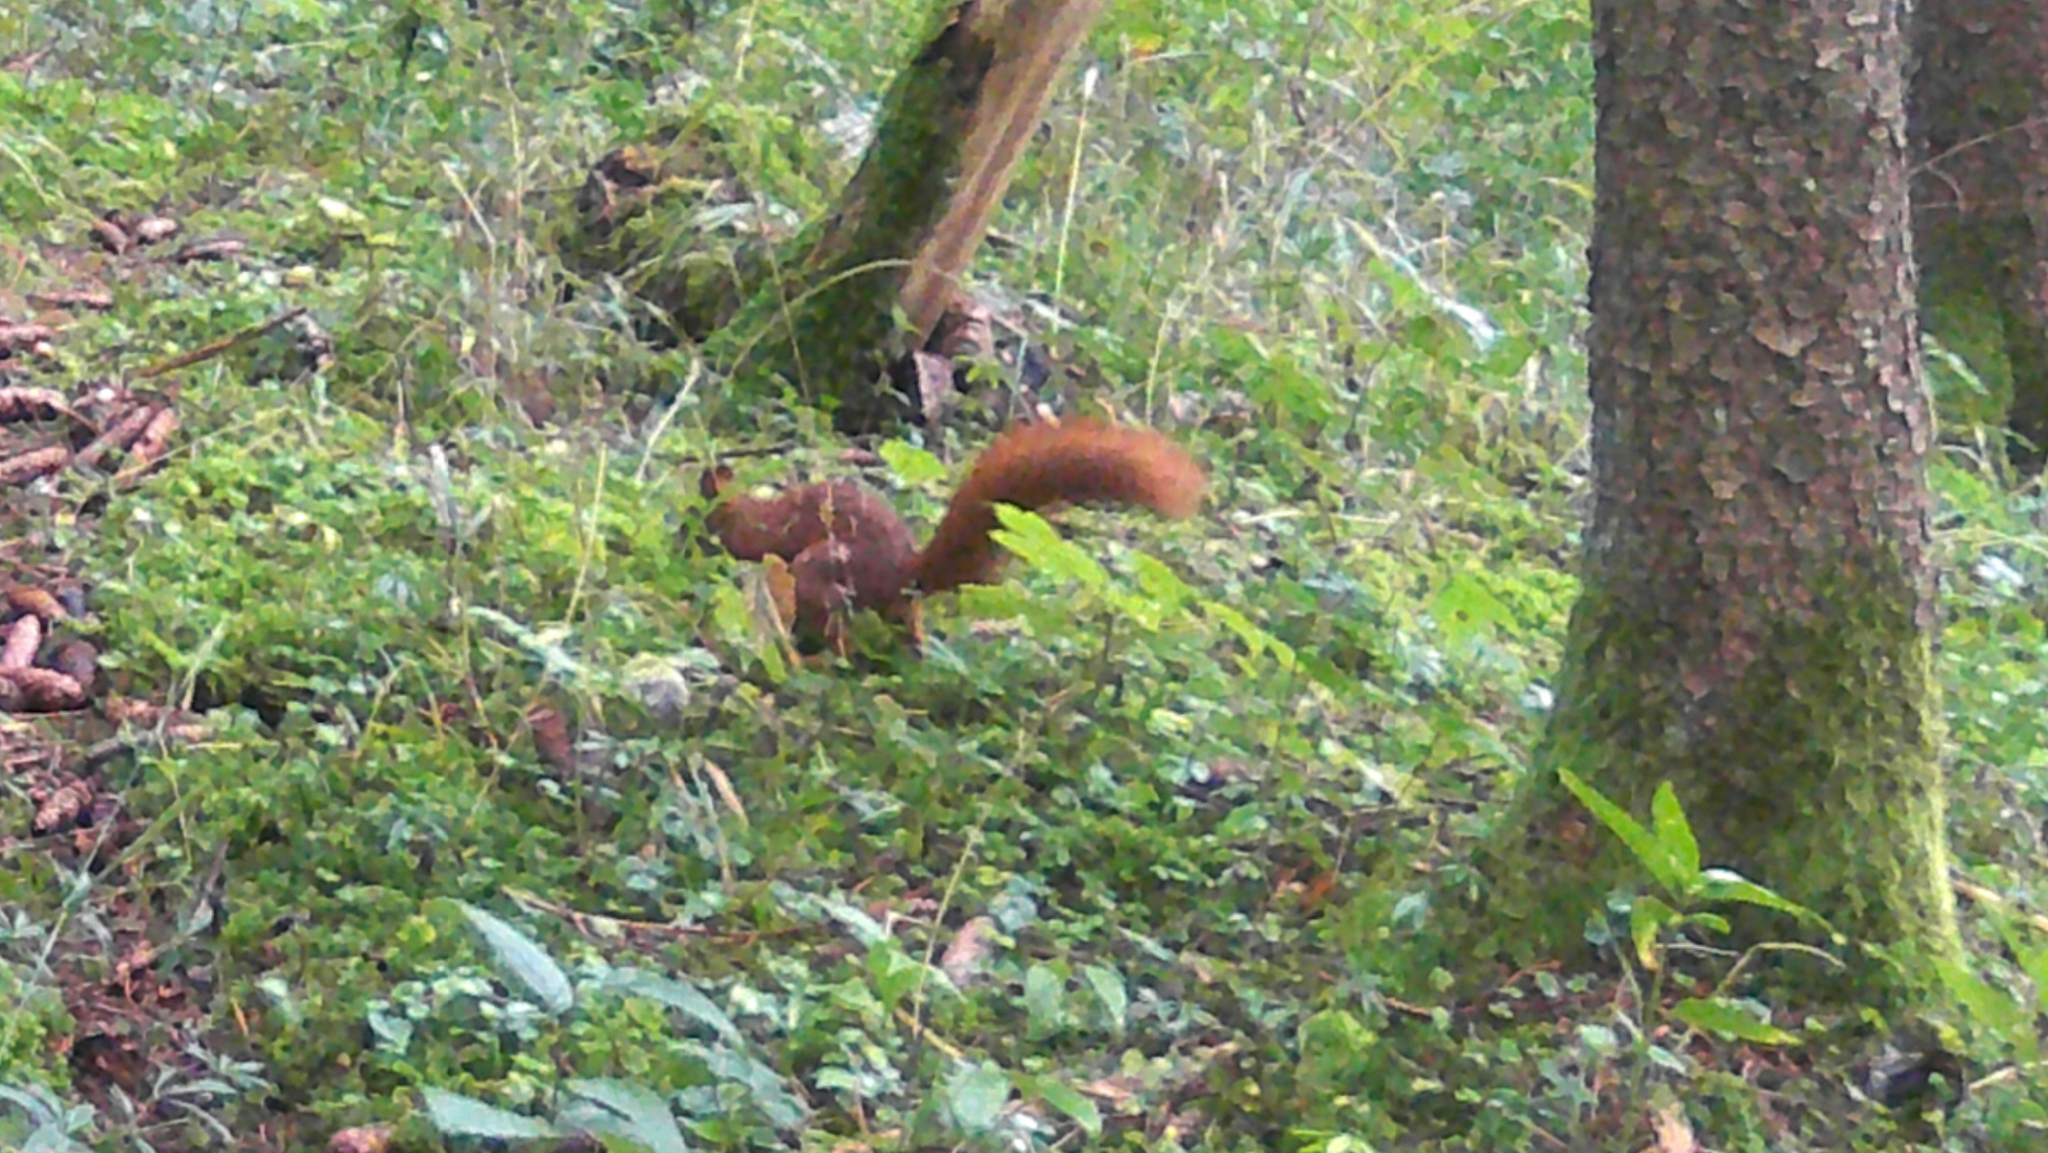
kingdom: Animalia
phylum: Chordata
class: Mammalia
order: Rodentia
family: Sciuridae
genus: Sciurus
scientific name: Sciurus vulgaris
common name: Eurasian red squirrel
